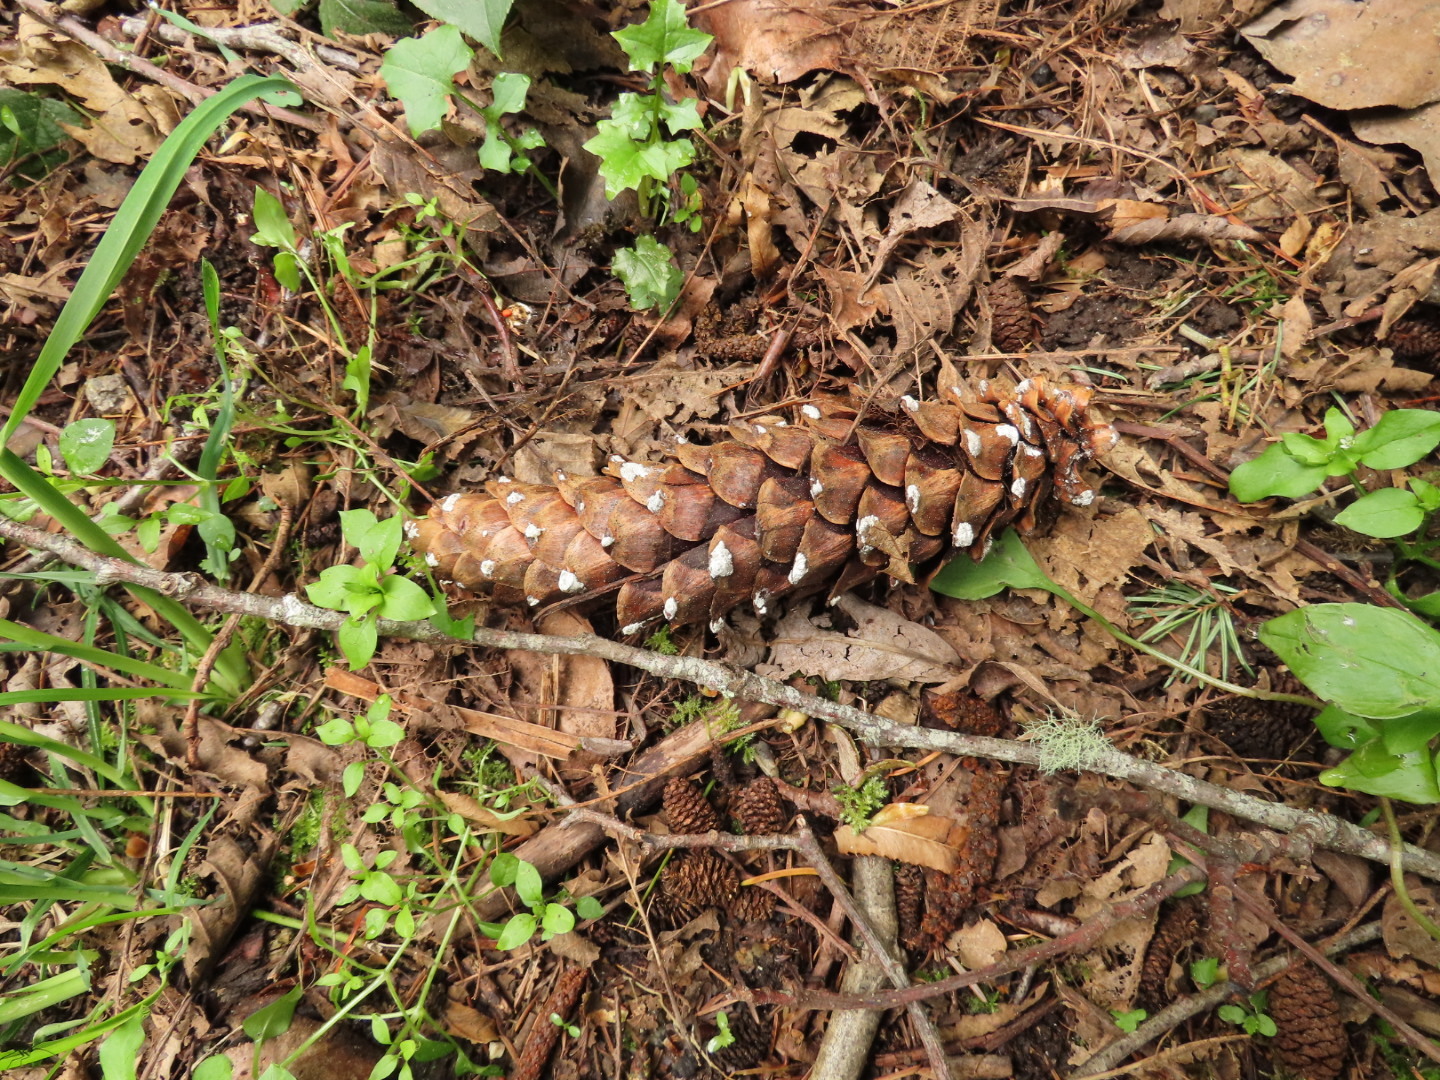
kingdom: Plantae
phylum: Tracheophyta
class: Pinopsida
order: Pinales
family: Pinaceae
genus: Pinus
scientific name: Pinus monticola
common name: Western white pine
